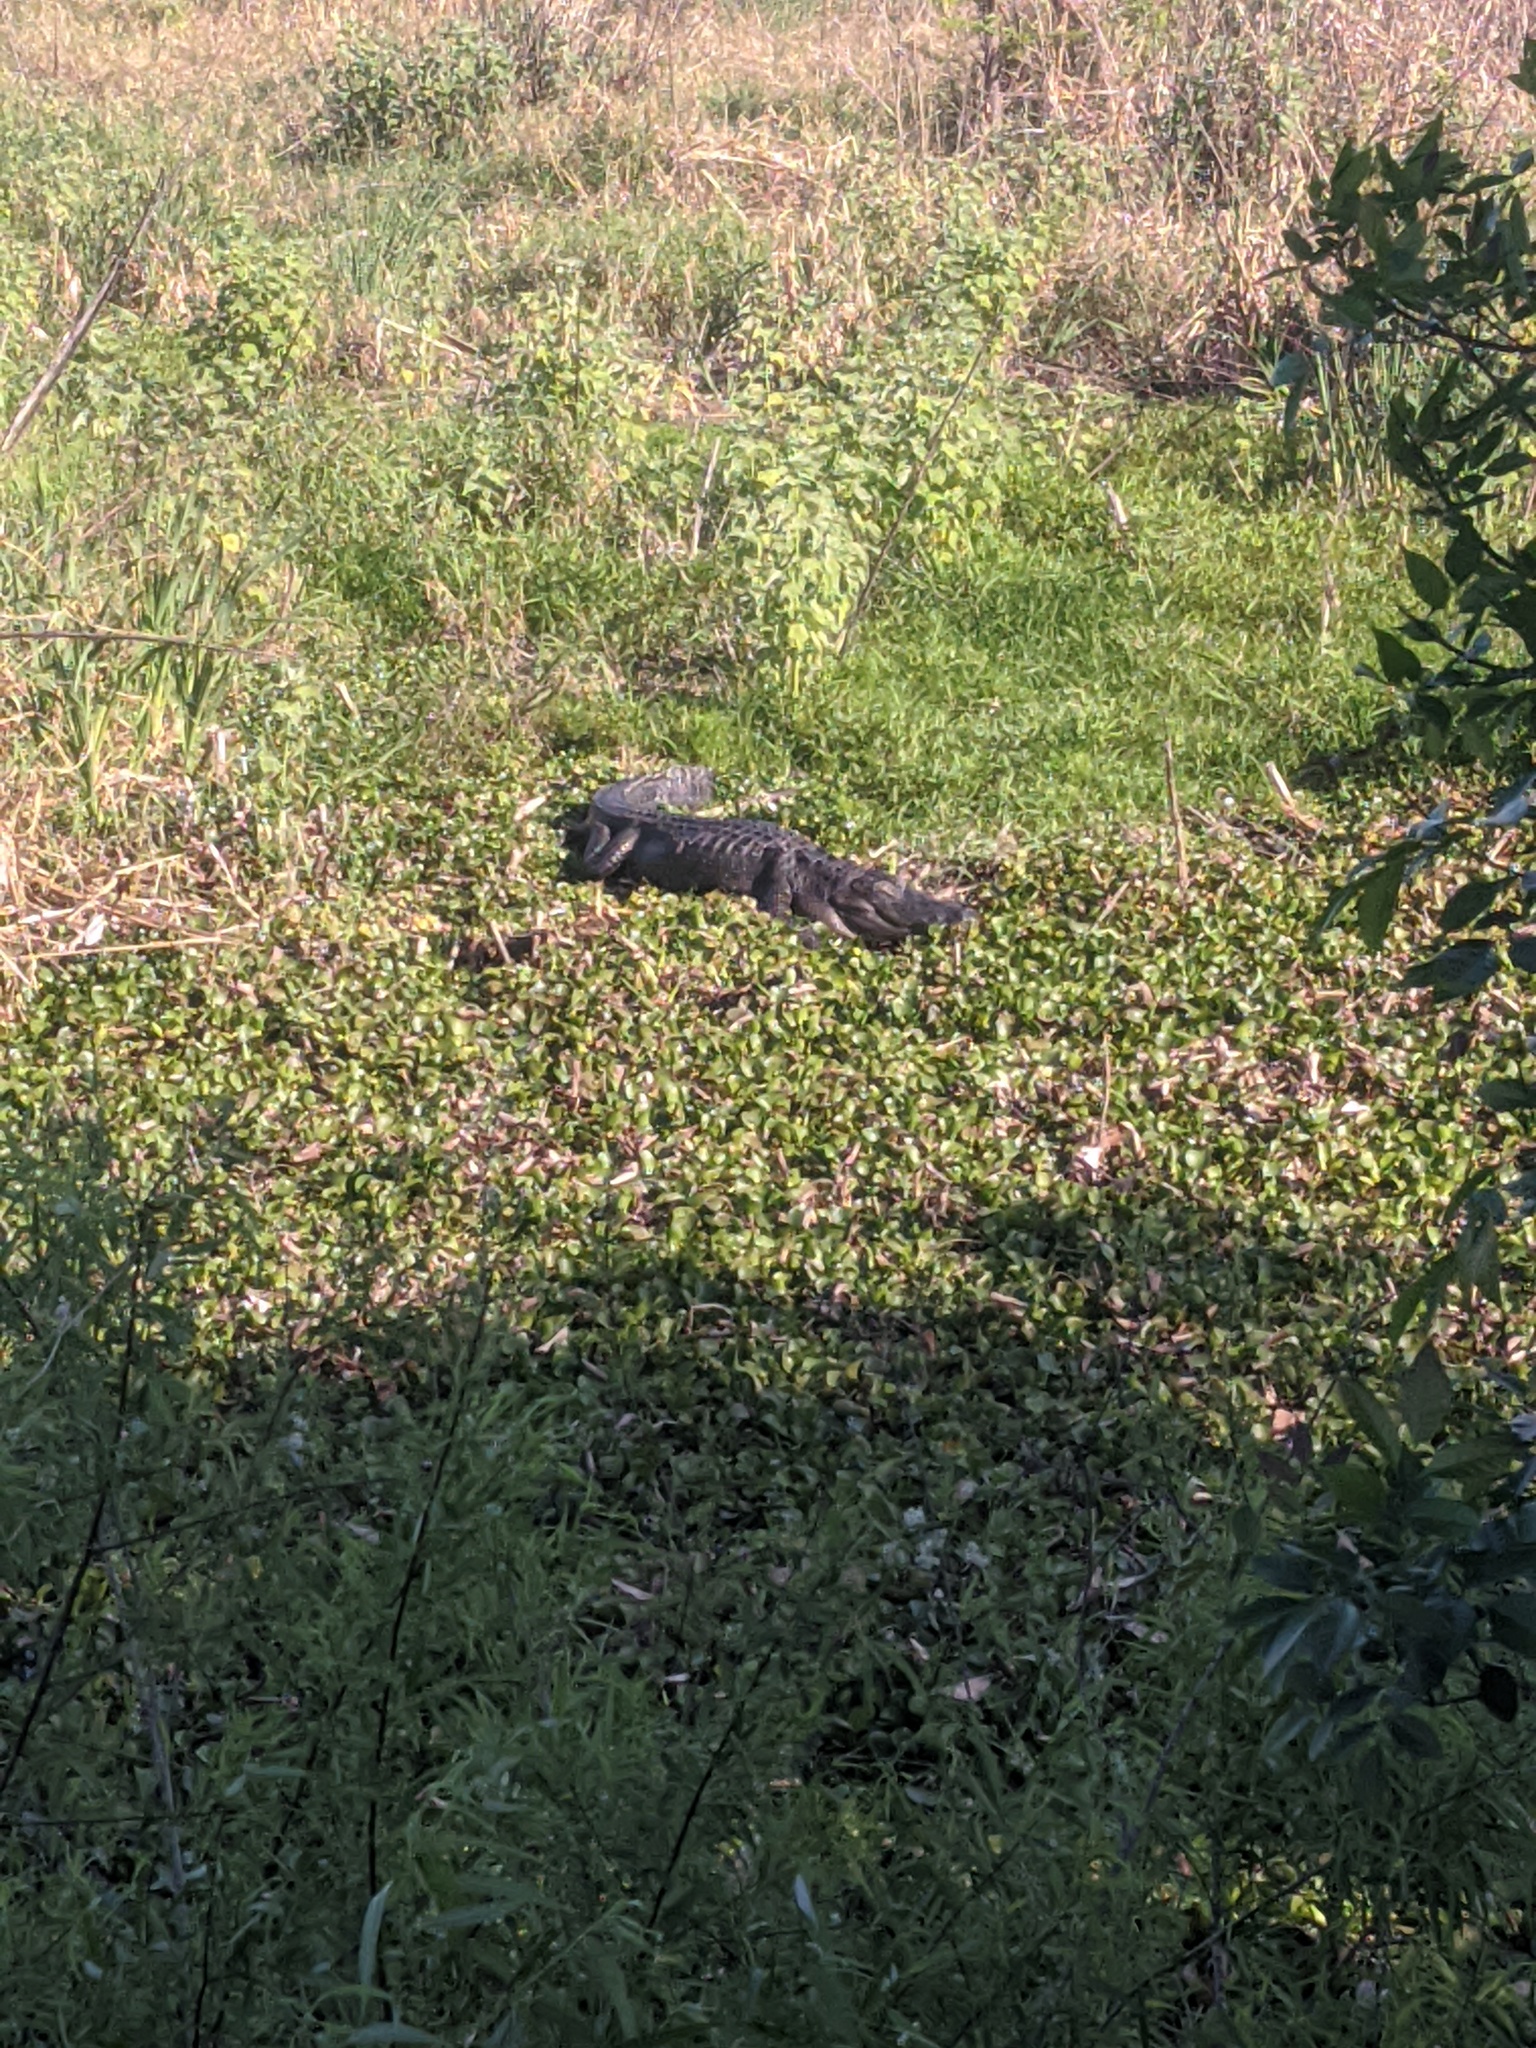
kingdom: Animalia
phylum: Chordata
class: Crocodylia
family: Alligatoridae
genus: Alligator
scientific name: Alligator mississippiensis
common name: American alligator
